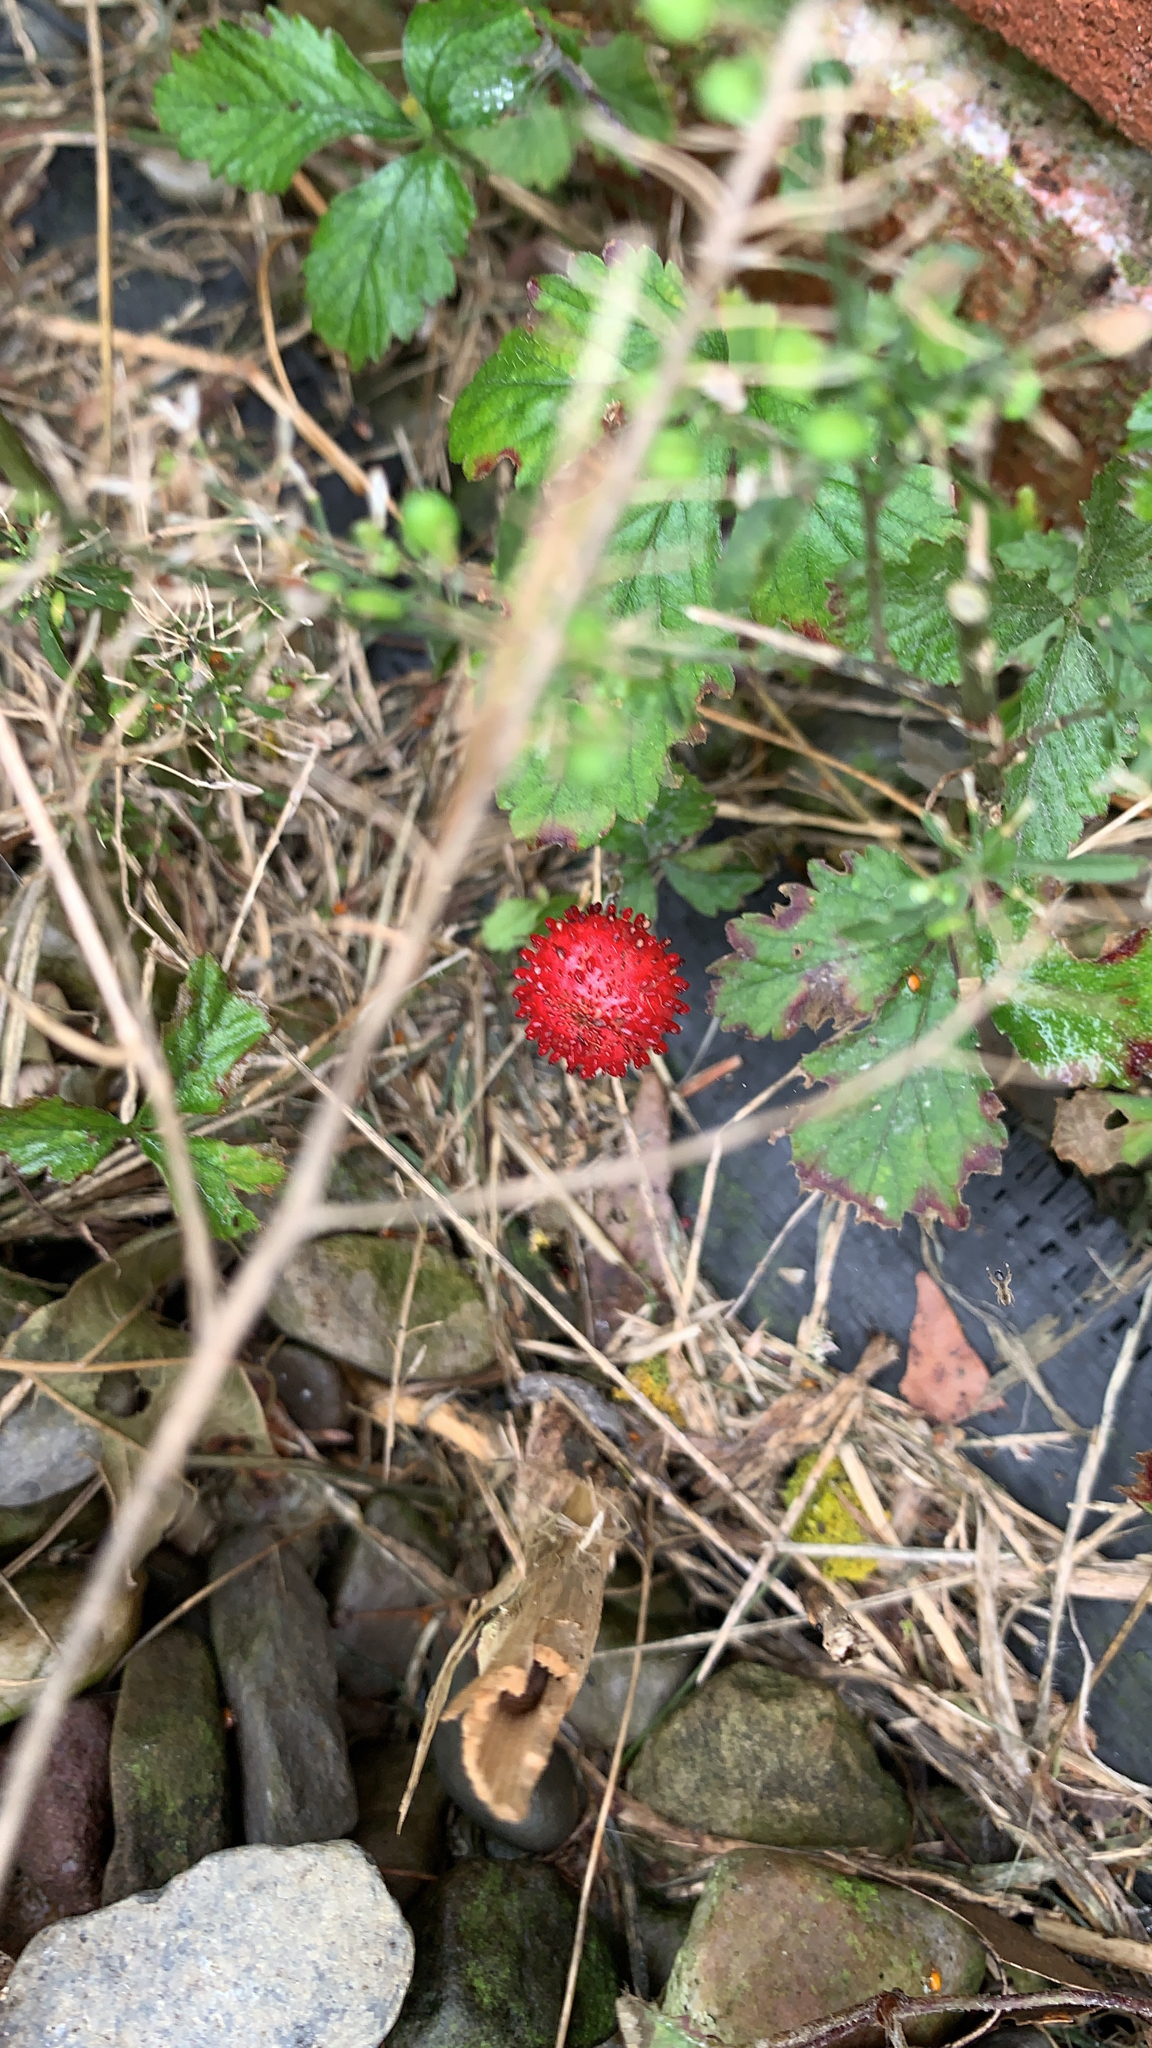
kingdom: Plantae
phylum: Tracheophyta
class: Magnoliopsida
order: Rosales
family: Rosaceae
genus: Potentilla
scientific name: Potentilla indica
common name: Yellow-flowered strawberry
